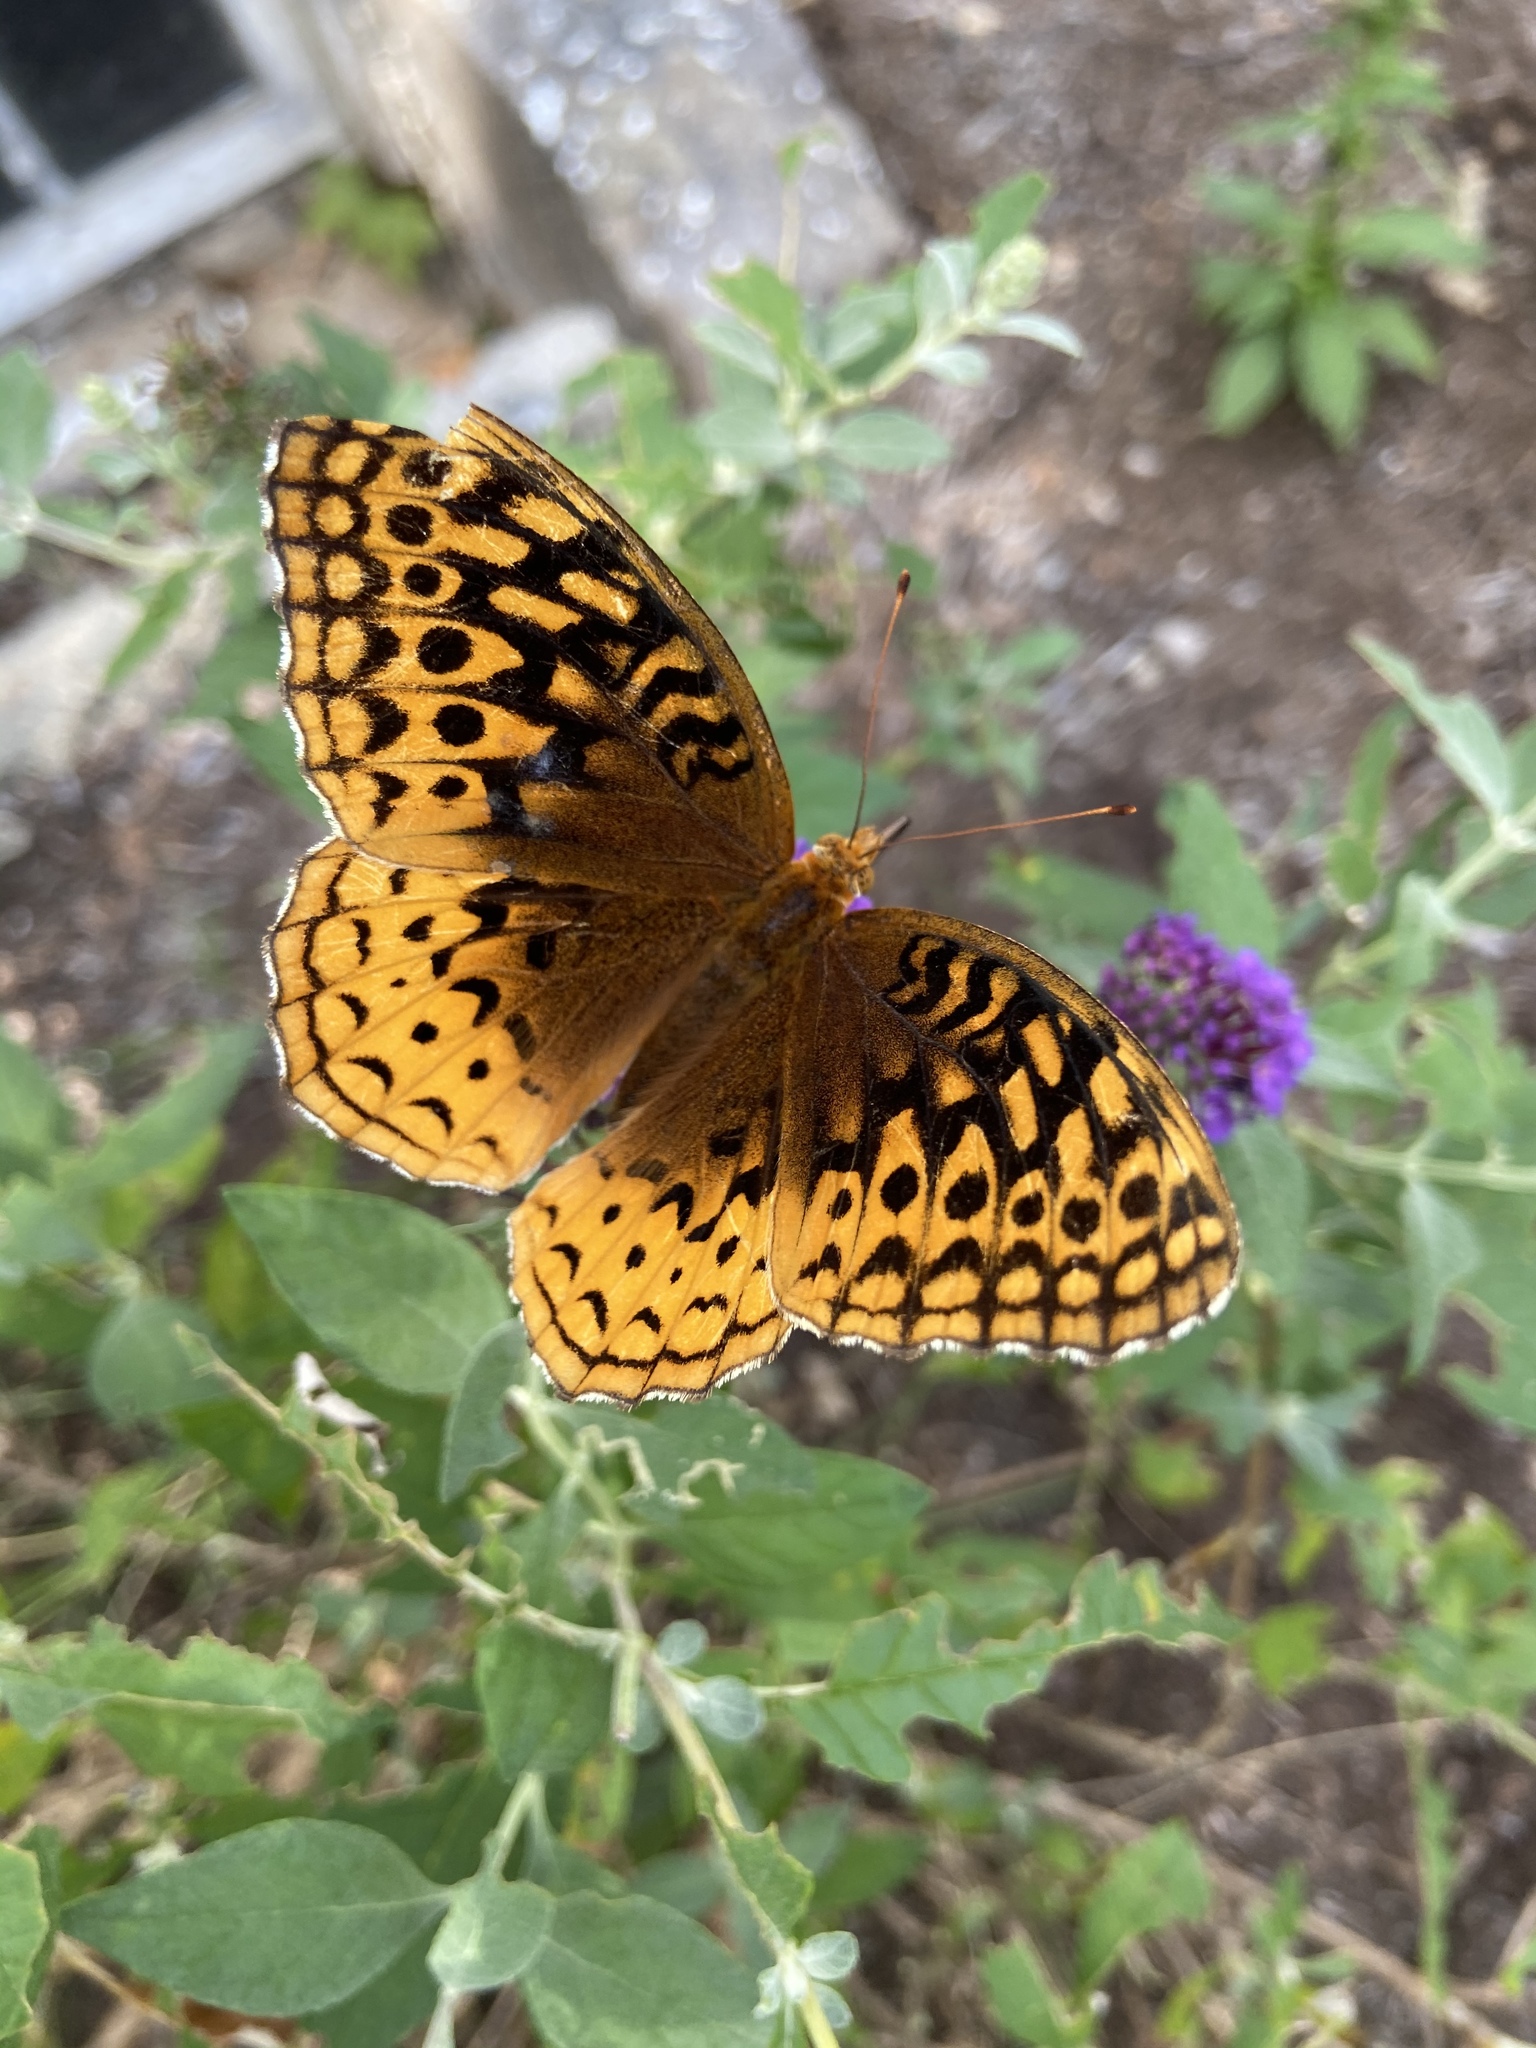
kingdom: Animalia
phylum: Arthropoda
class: Insecta
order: Lepidoptera
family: Nymphalidae
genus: Speyeria
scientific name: Speyeria cybele
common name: Great spangled fritillary
